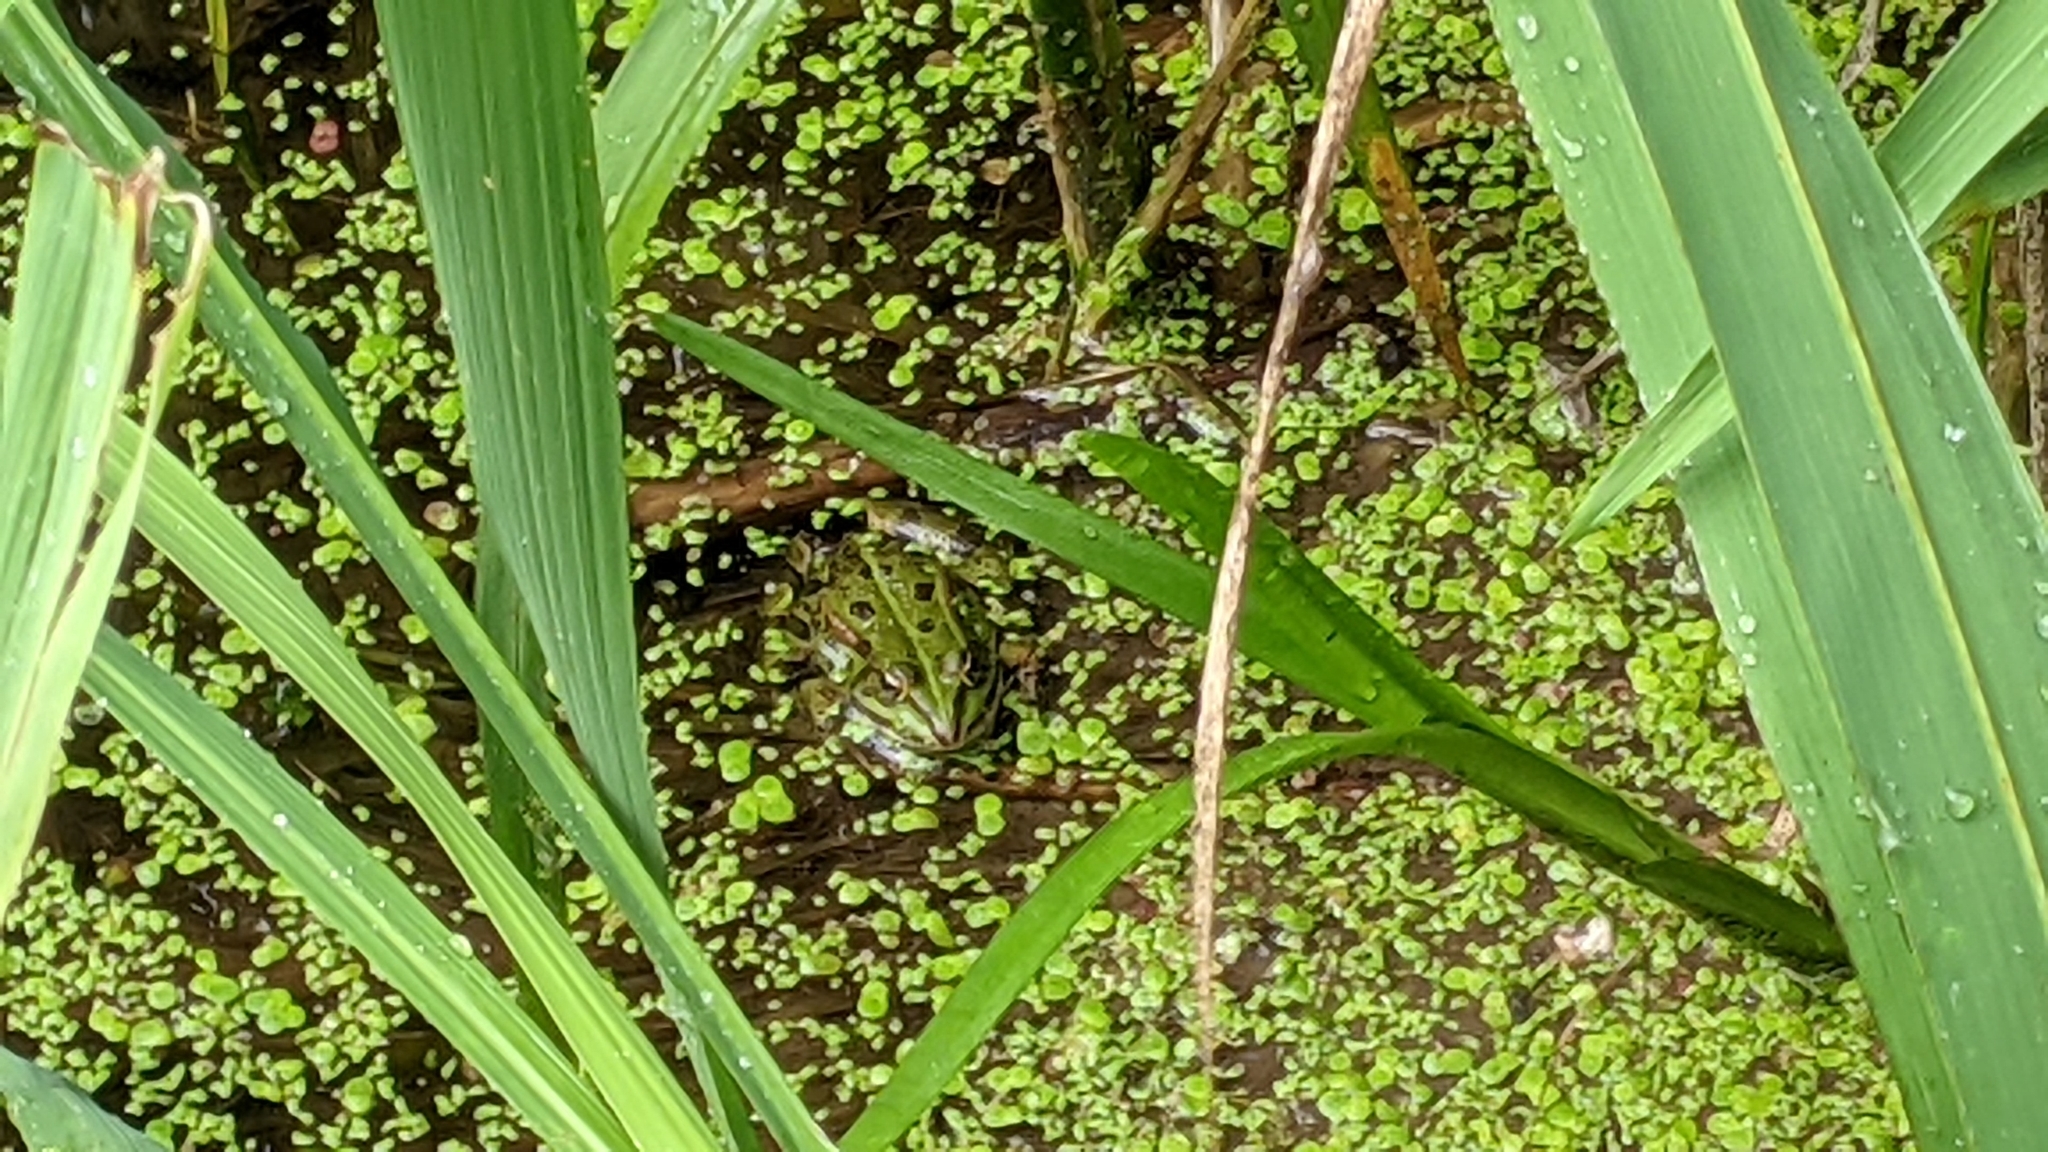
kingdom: Animalia
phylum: Chordata
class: Amphibia
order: Anura
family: Ranidae
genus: Pelophylax
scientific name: Pelophylax lessonae
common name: Pool frog
